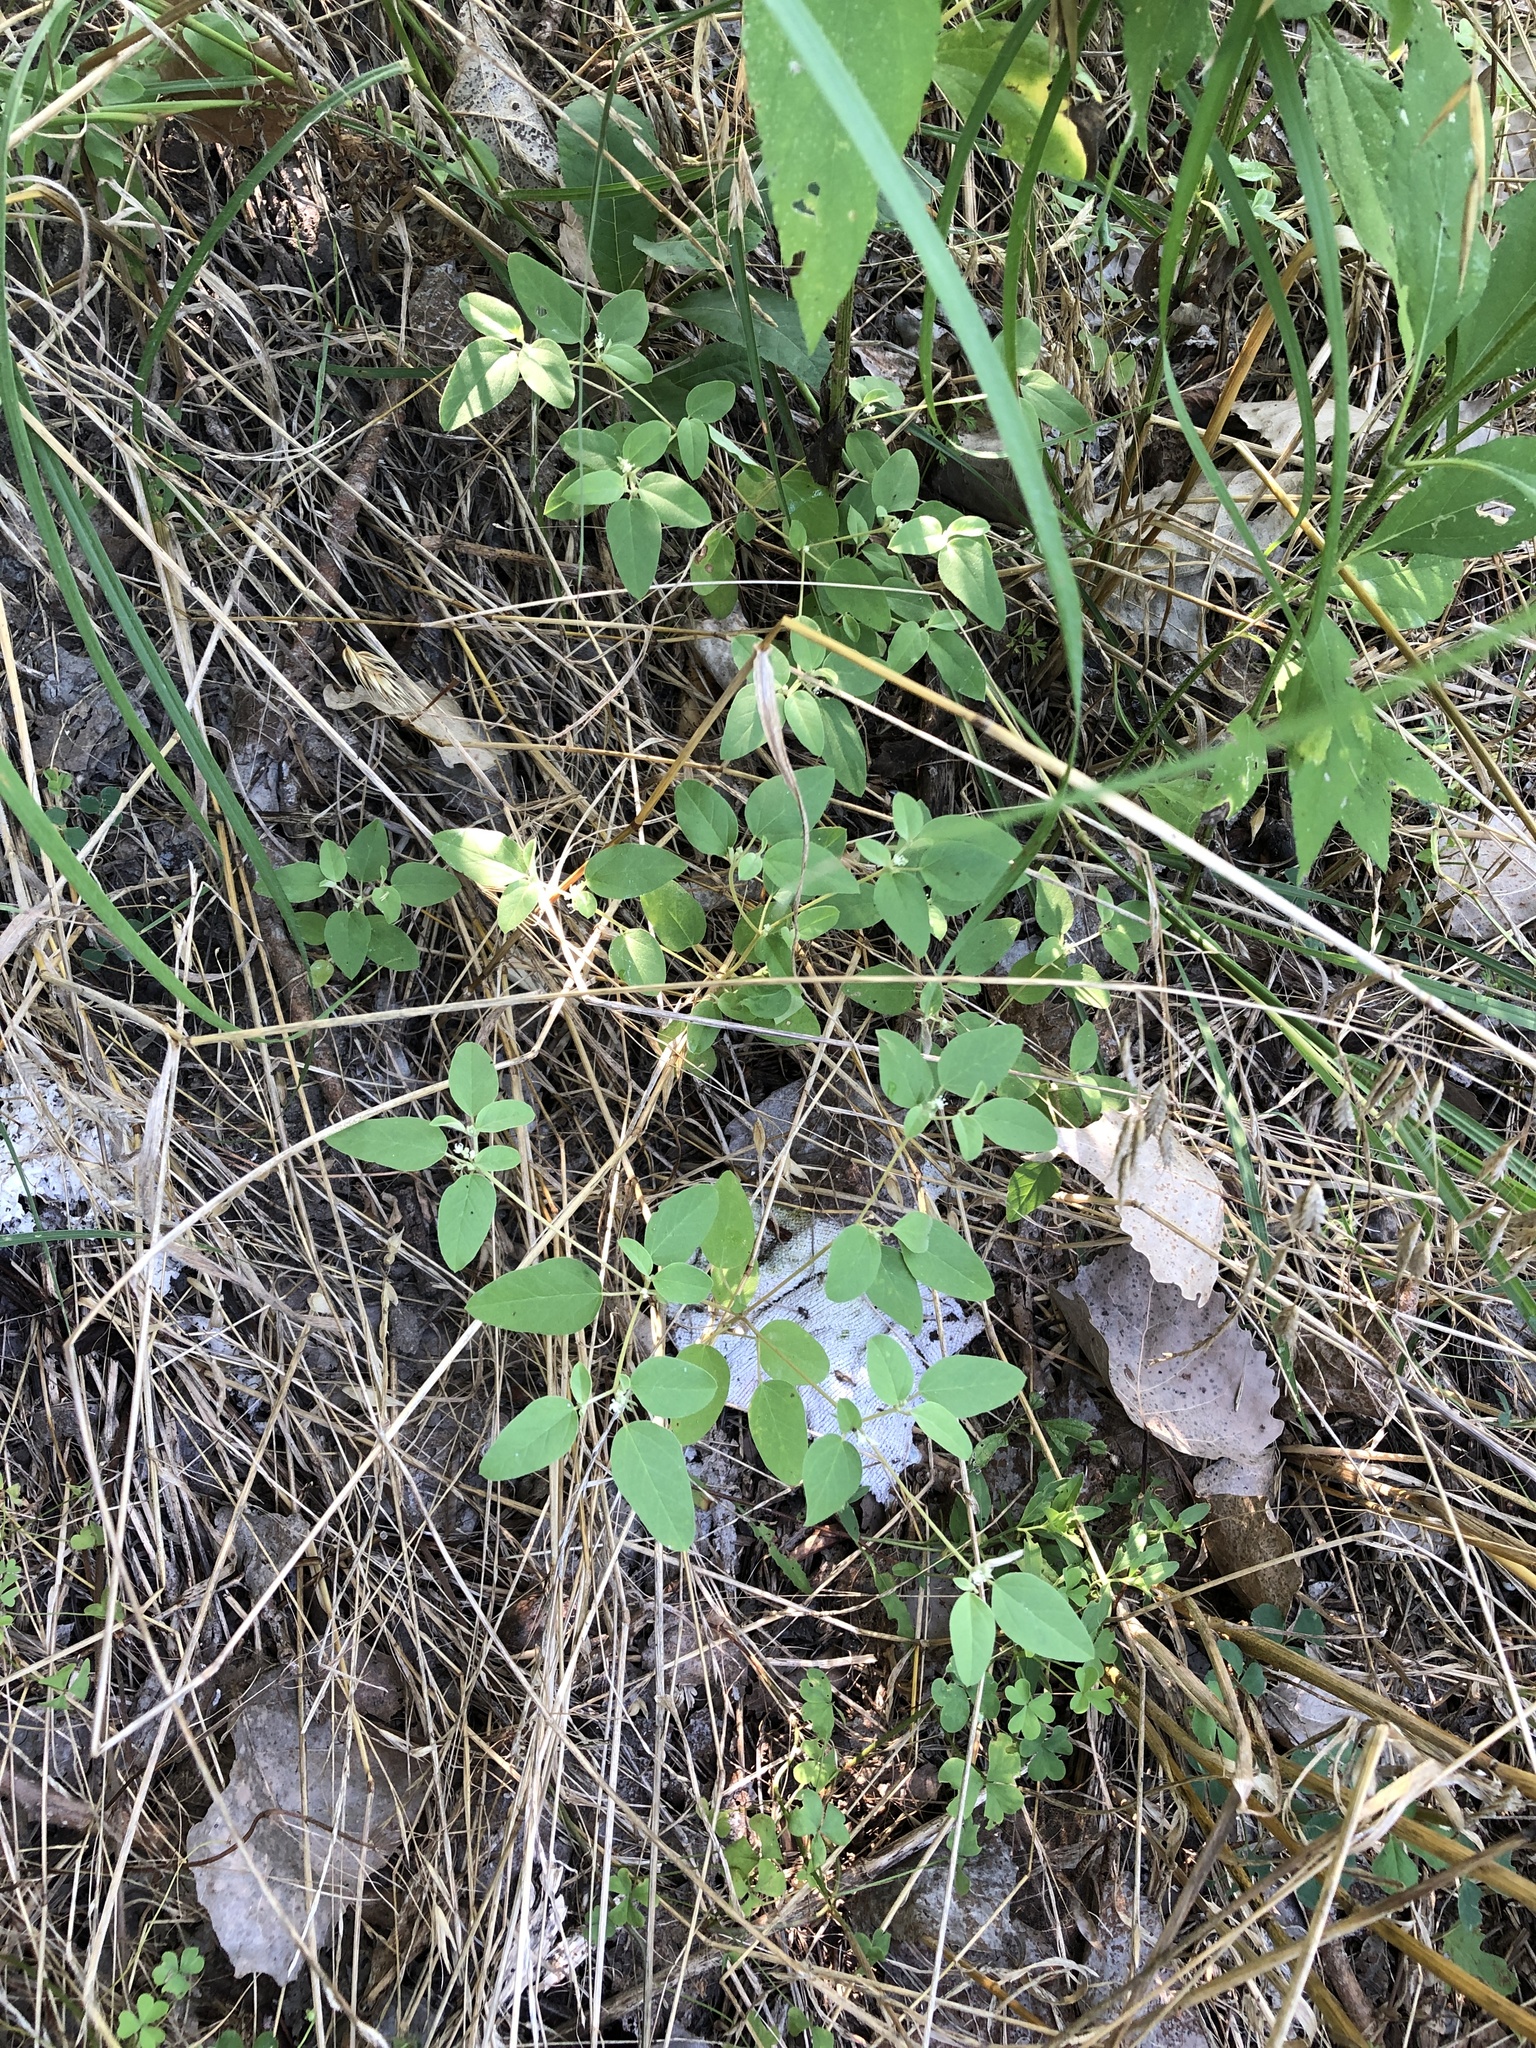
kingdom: Plantae
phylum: Tracheophyta
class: Magnoliopsida
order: Malpighiales
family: Euphorbiaceae
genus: Croton
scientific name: Croton monanthogynus
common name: One-seed croton
